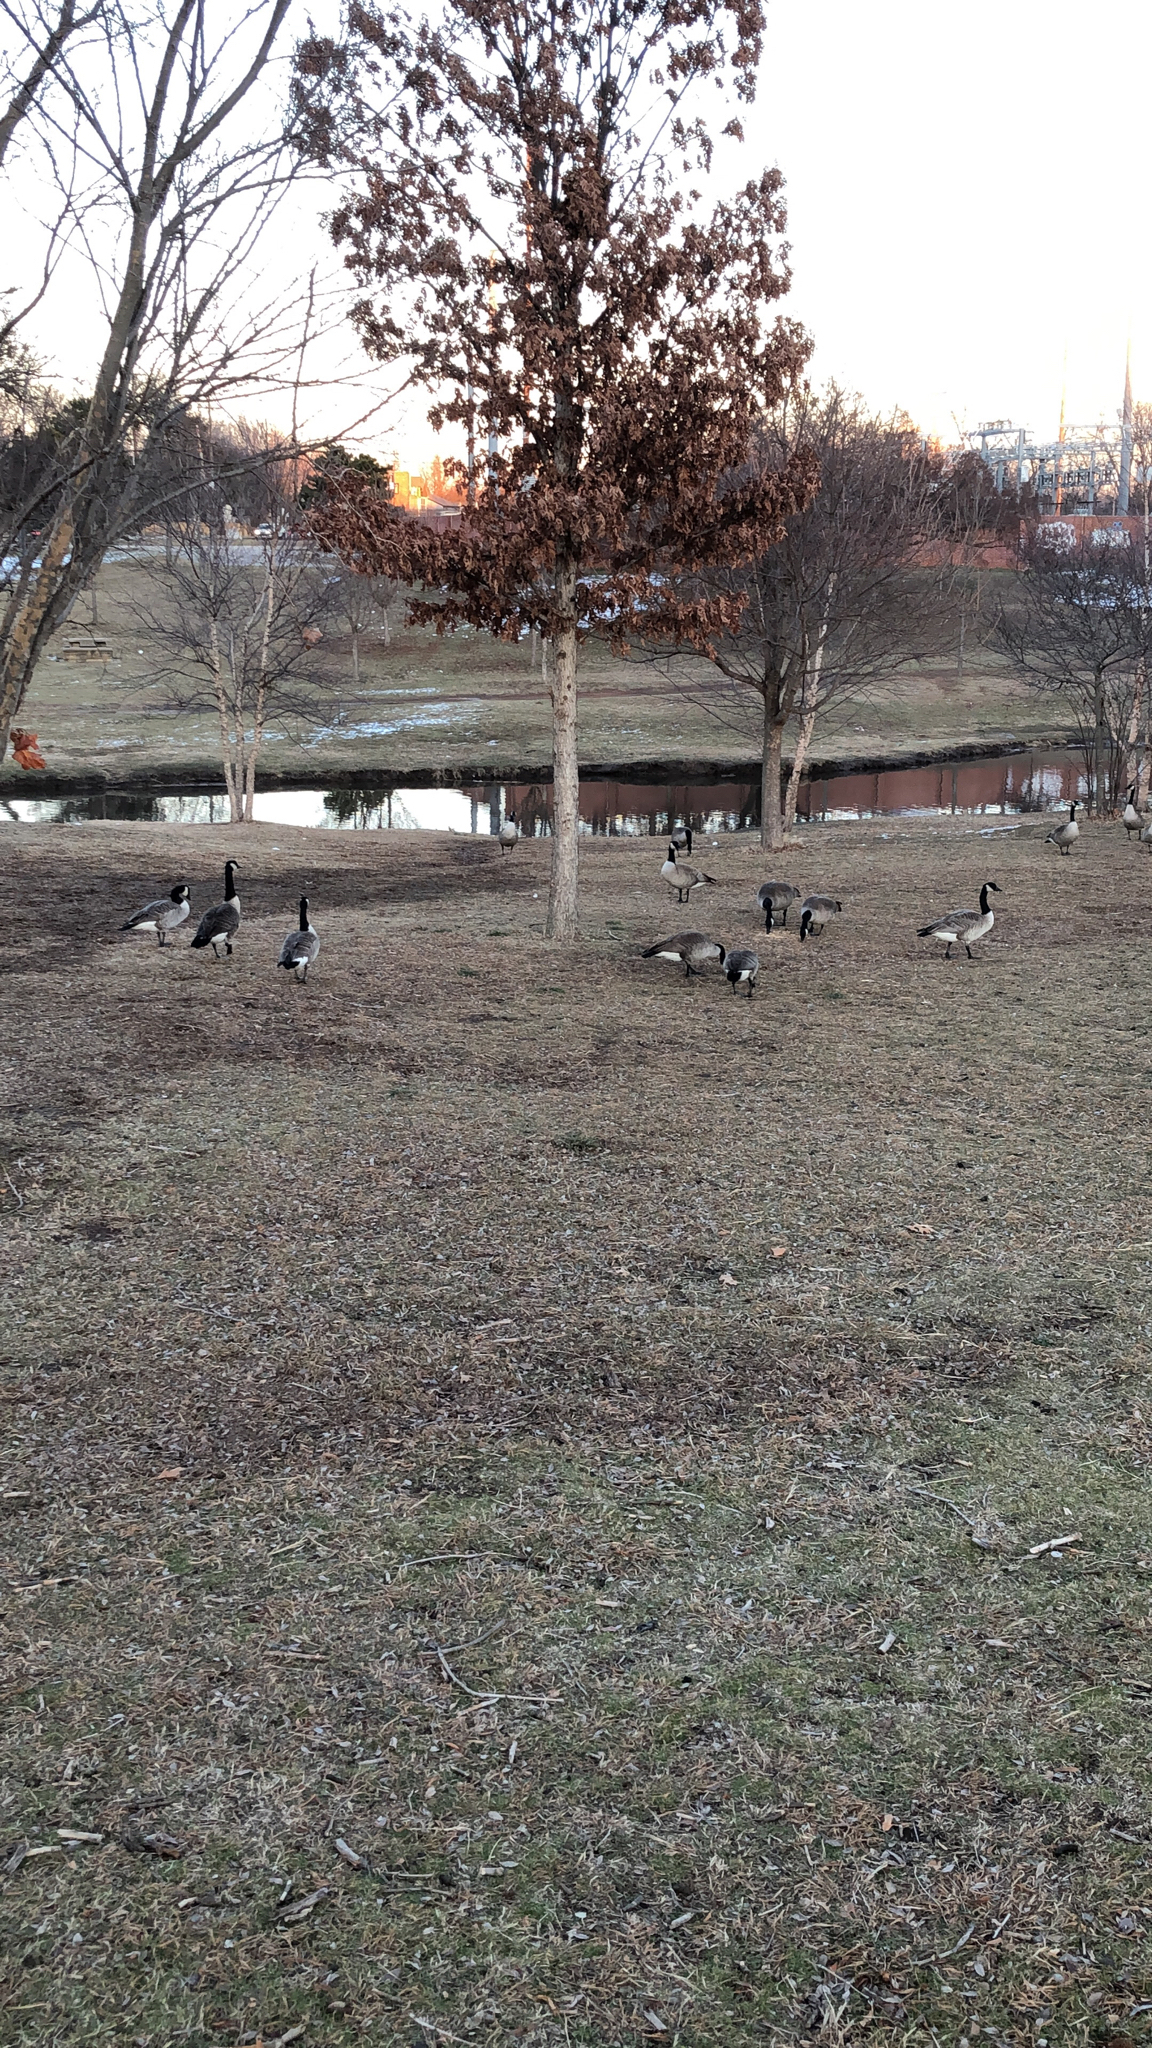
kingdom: Animalia
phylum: Chordata
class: Aves
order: Anseriformes
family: Anatidae
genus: Branta
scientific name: Branta canadensis
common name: Canada goose
